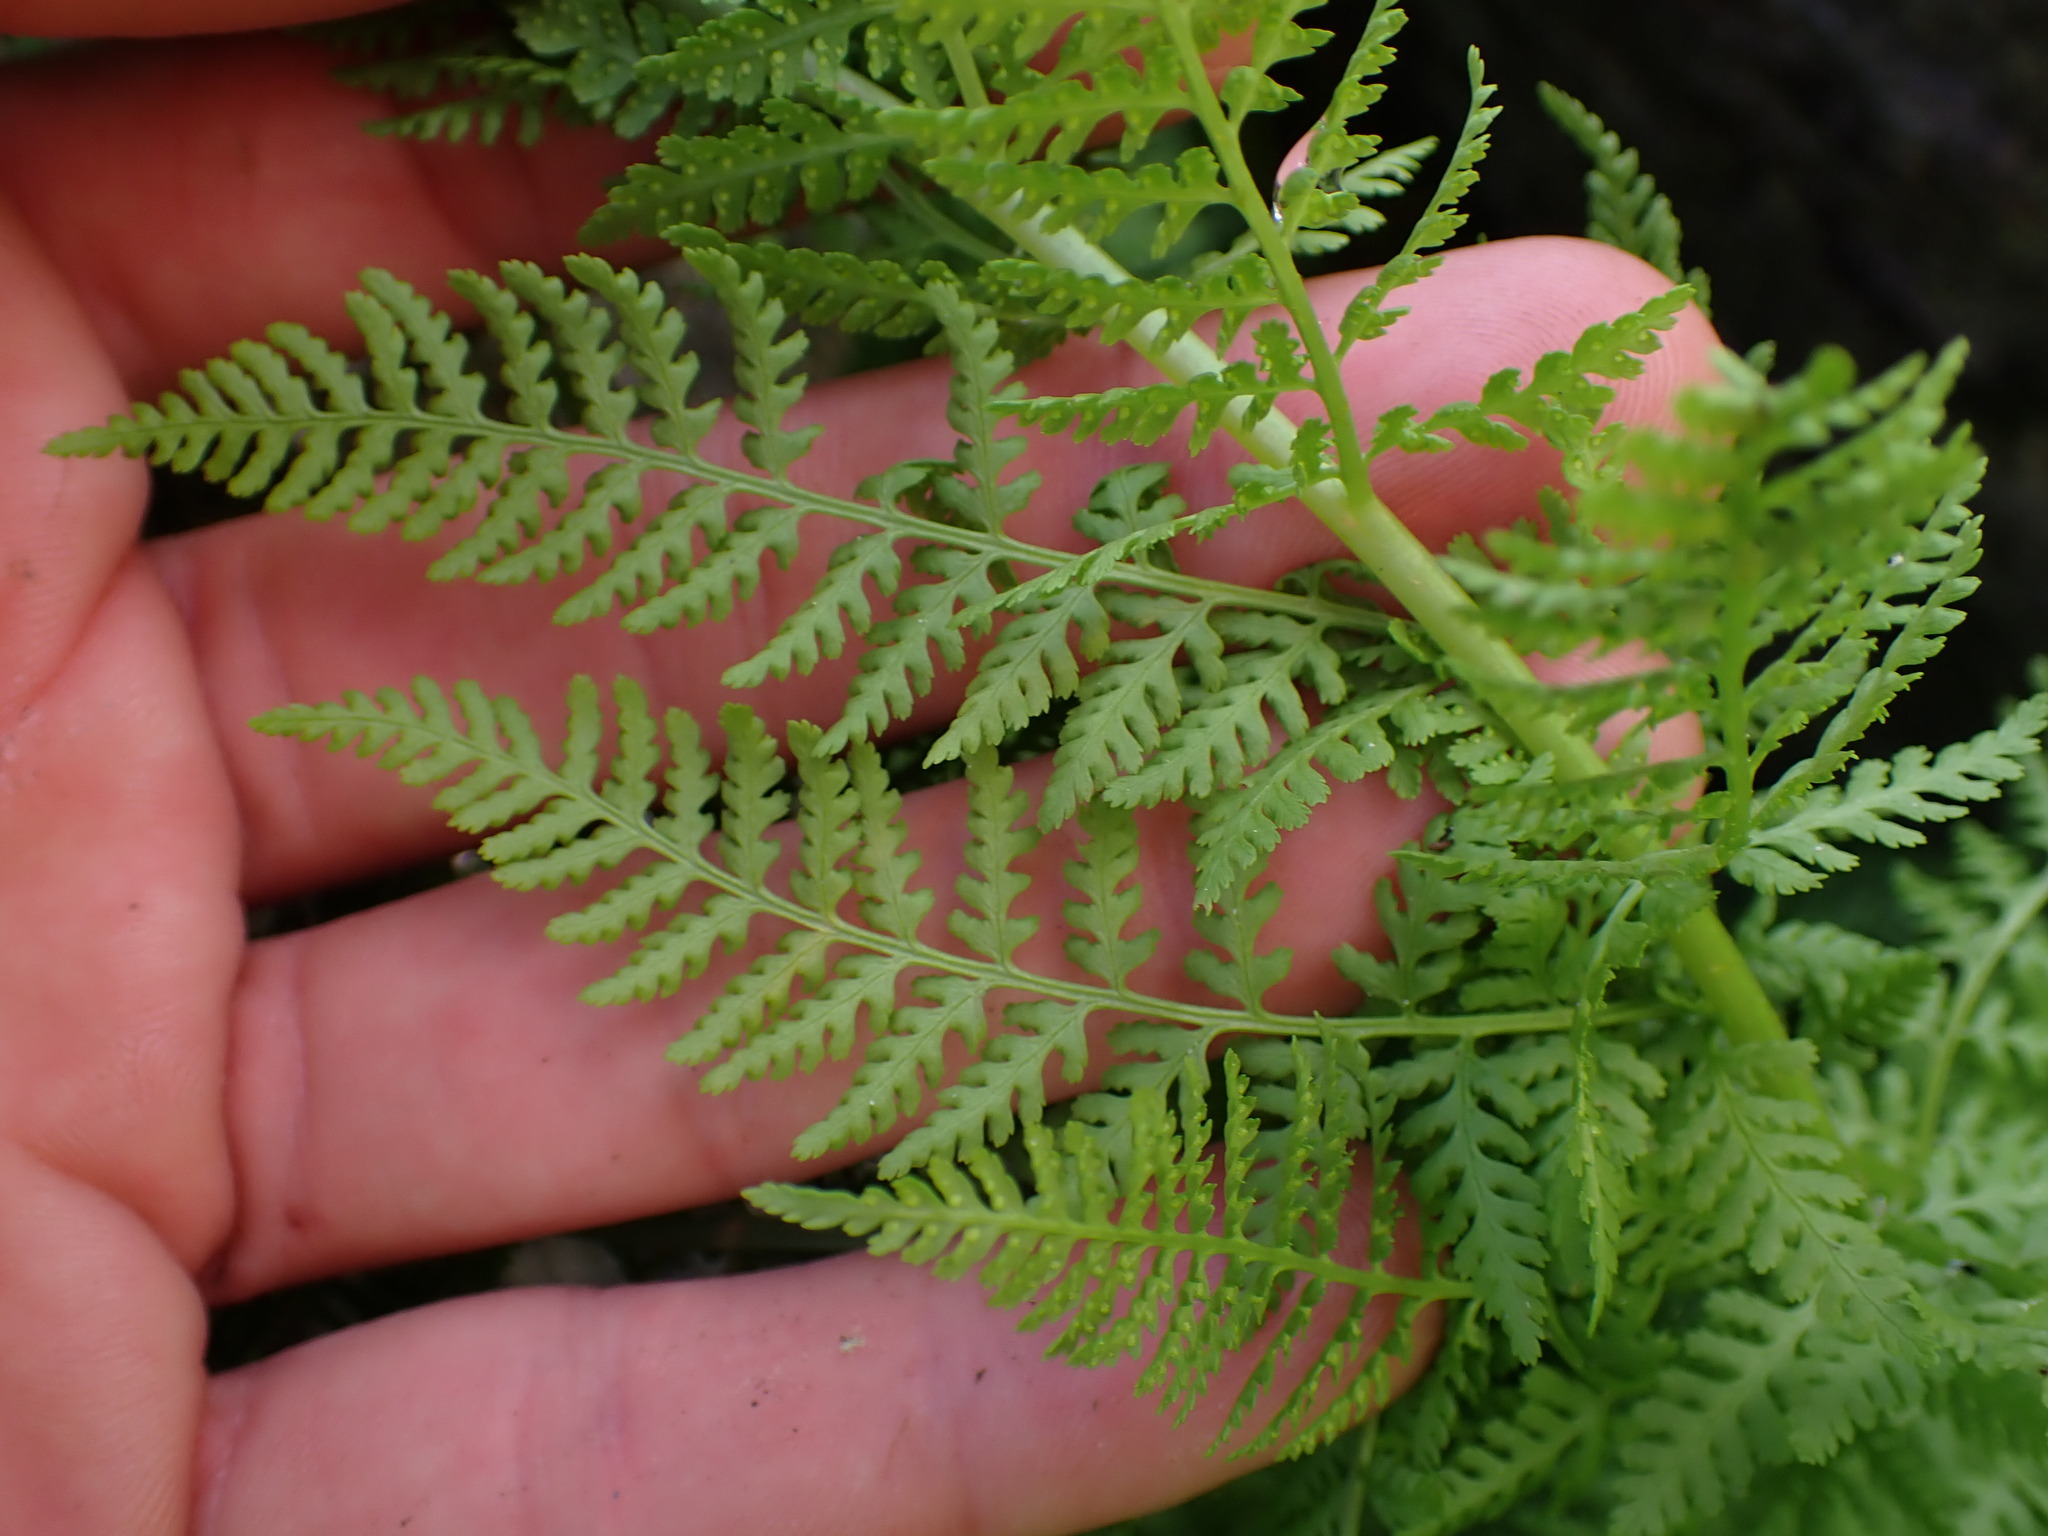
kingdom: Plantae
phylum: Tracheophyta
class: Polypodiopsida
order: Polypodiales
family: Athyriaceae
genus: Athyrium
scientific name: Athyrium americanum
